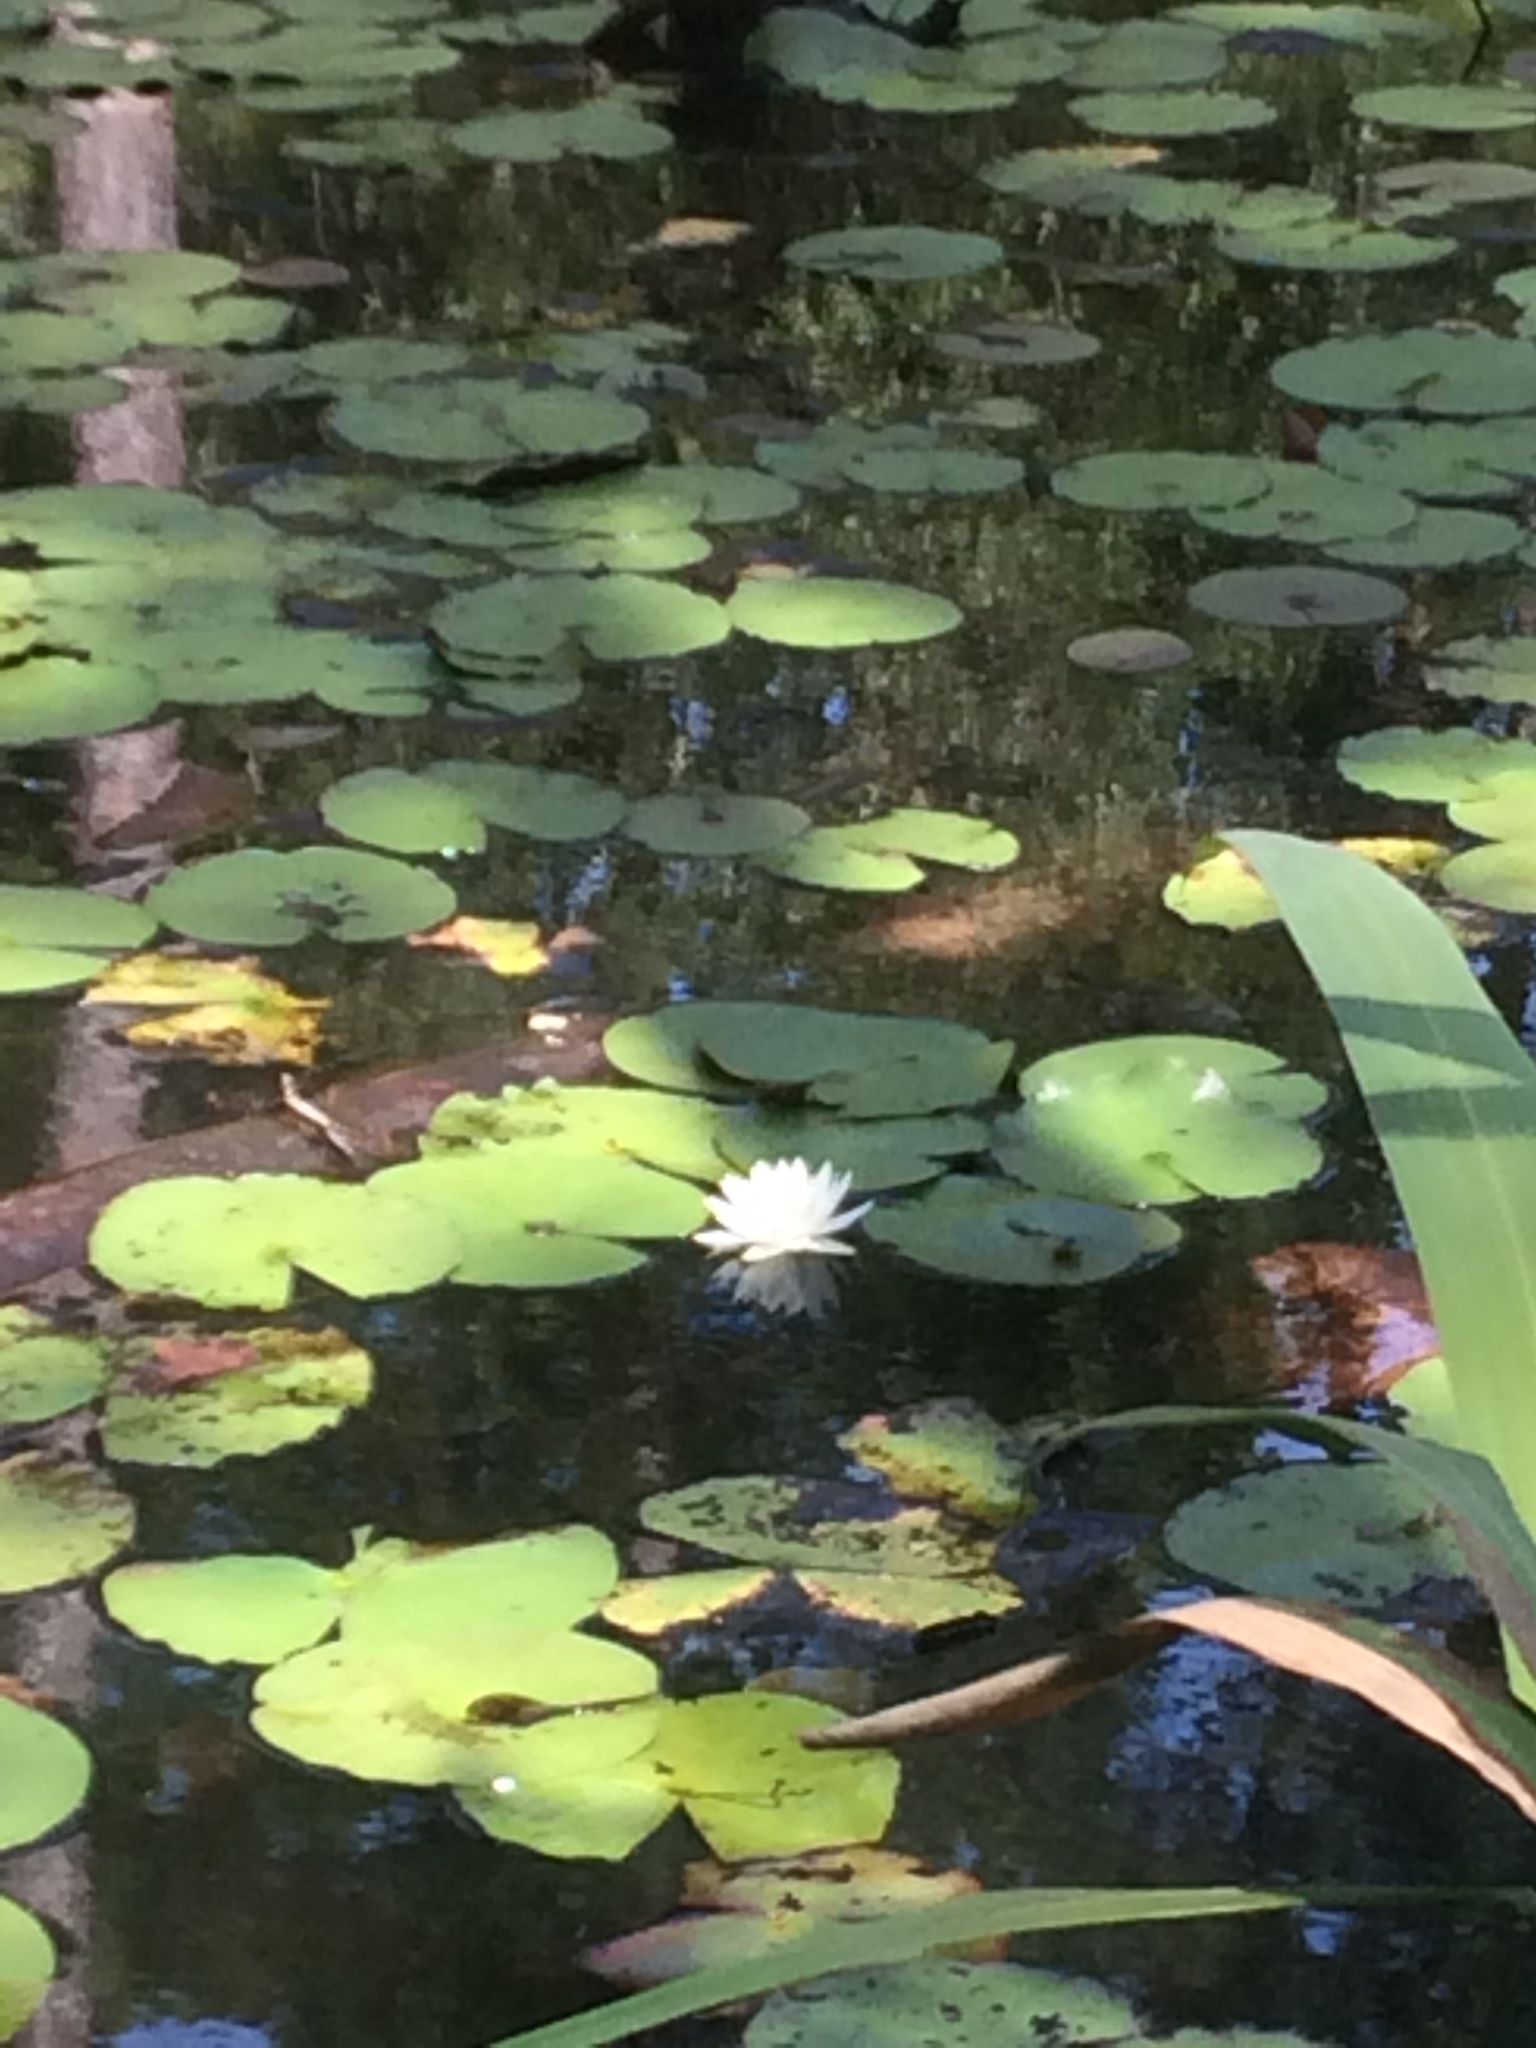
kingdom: Plantae
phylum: Tracheophyta
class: Magnoliopsida
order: Nymphaeales
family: Nymphaeaceae
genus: Nymphaea
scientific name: Nymphaea odorata
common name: Fragrant water-lily
